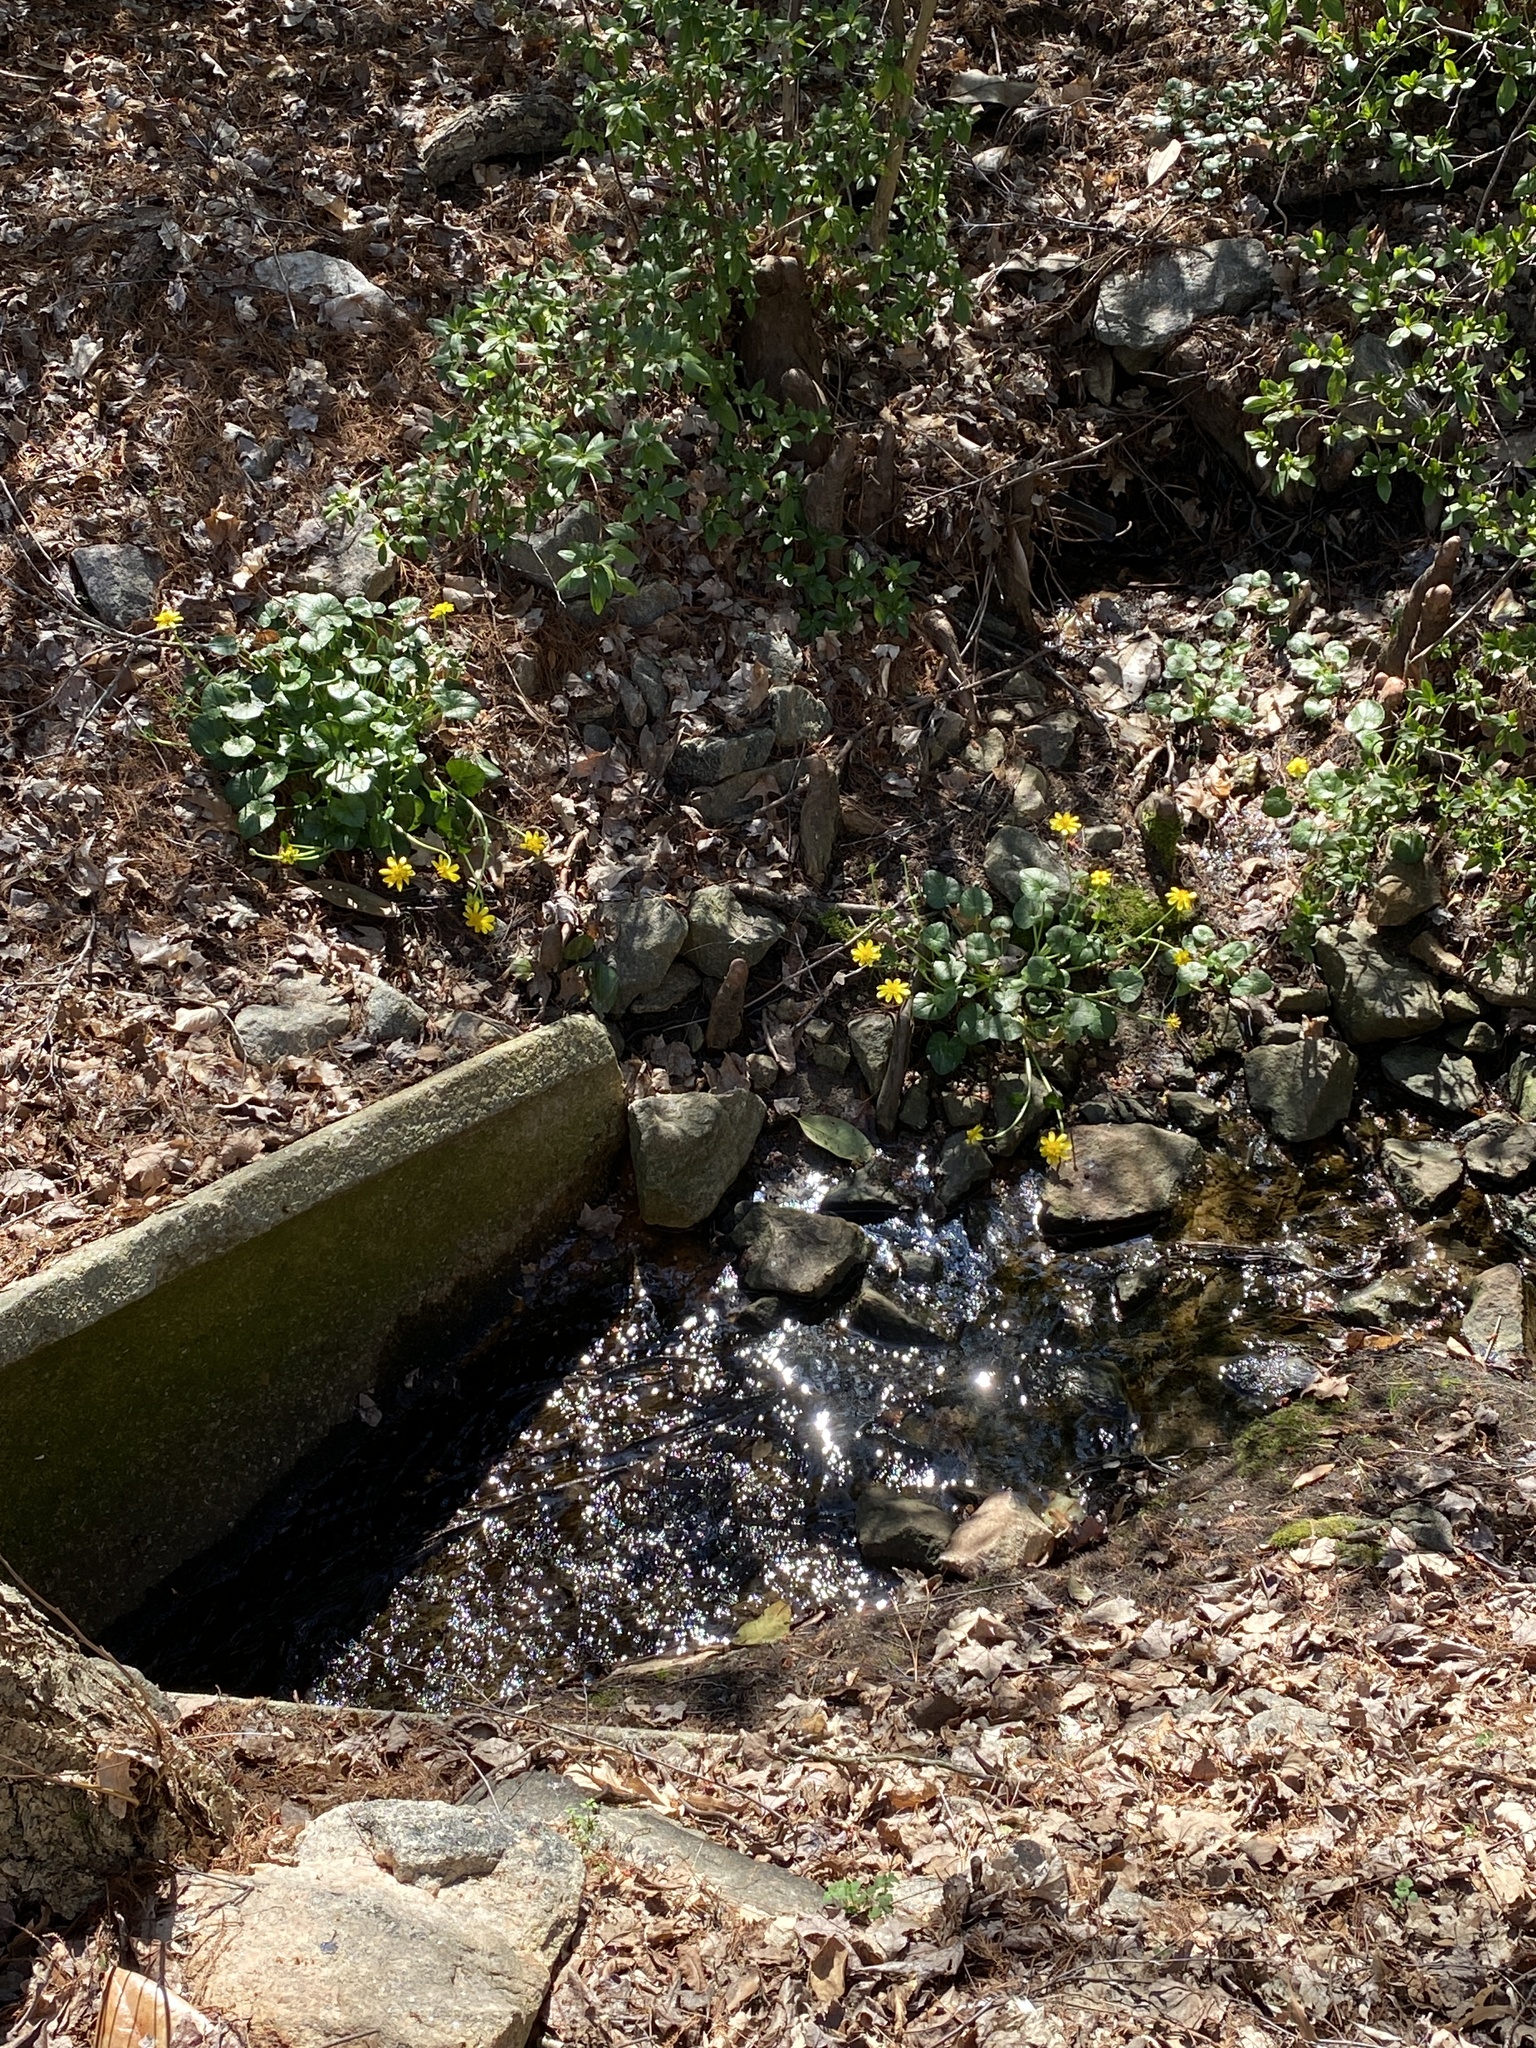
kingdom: Plantae
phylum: Tracheophyta
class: Magnoliopsida
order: Ranunculales
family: Ranunculaceae
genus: Ficaria
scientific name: Ficaria verna
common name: Lesser celandine
